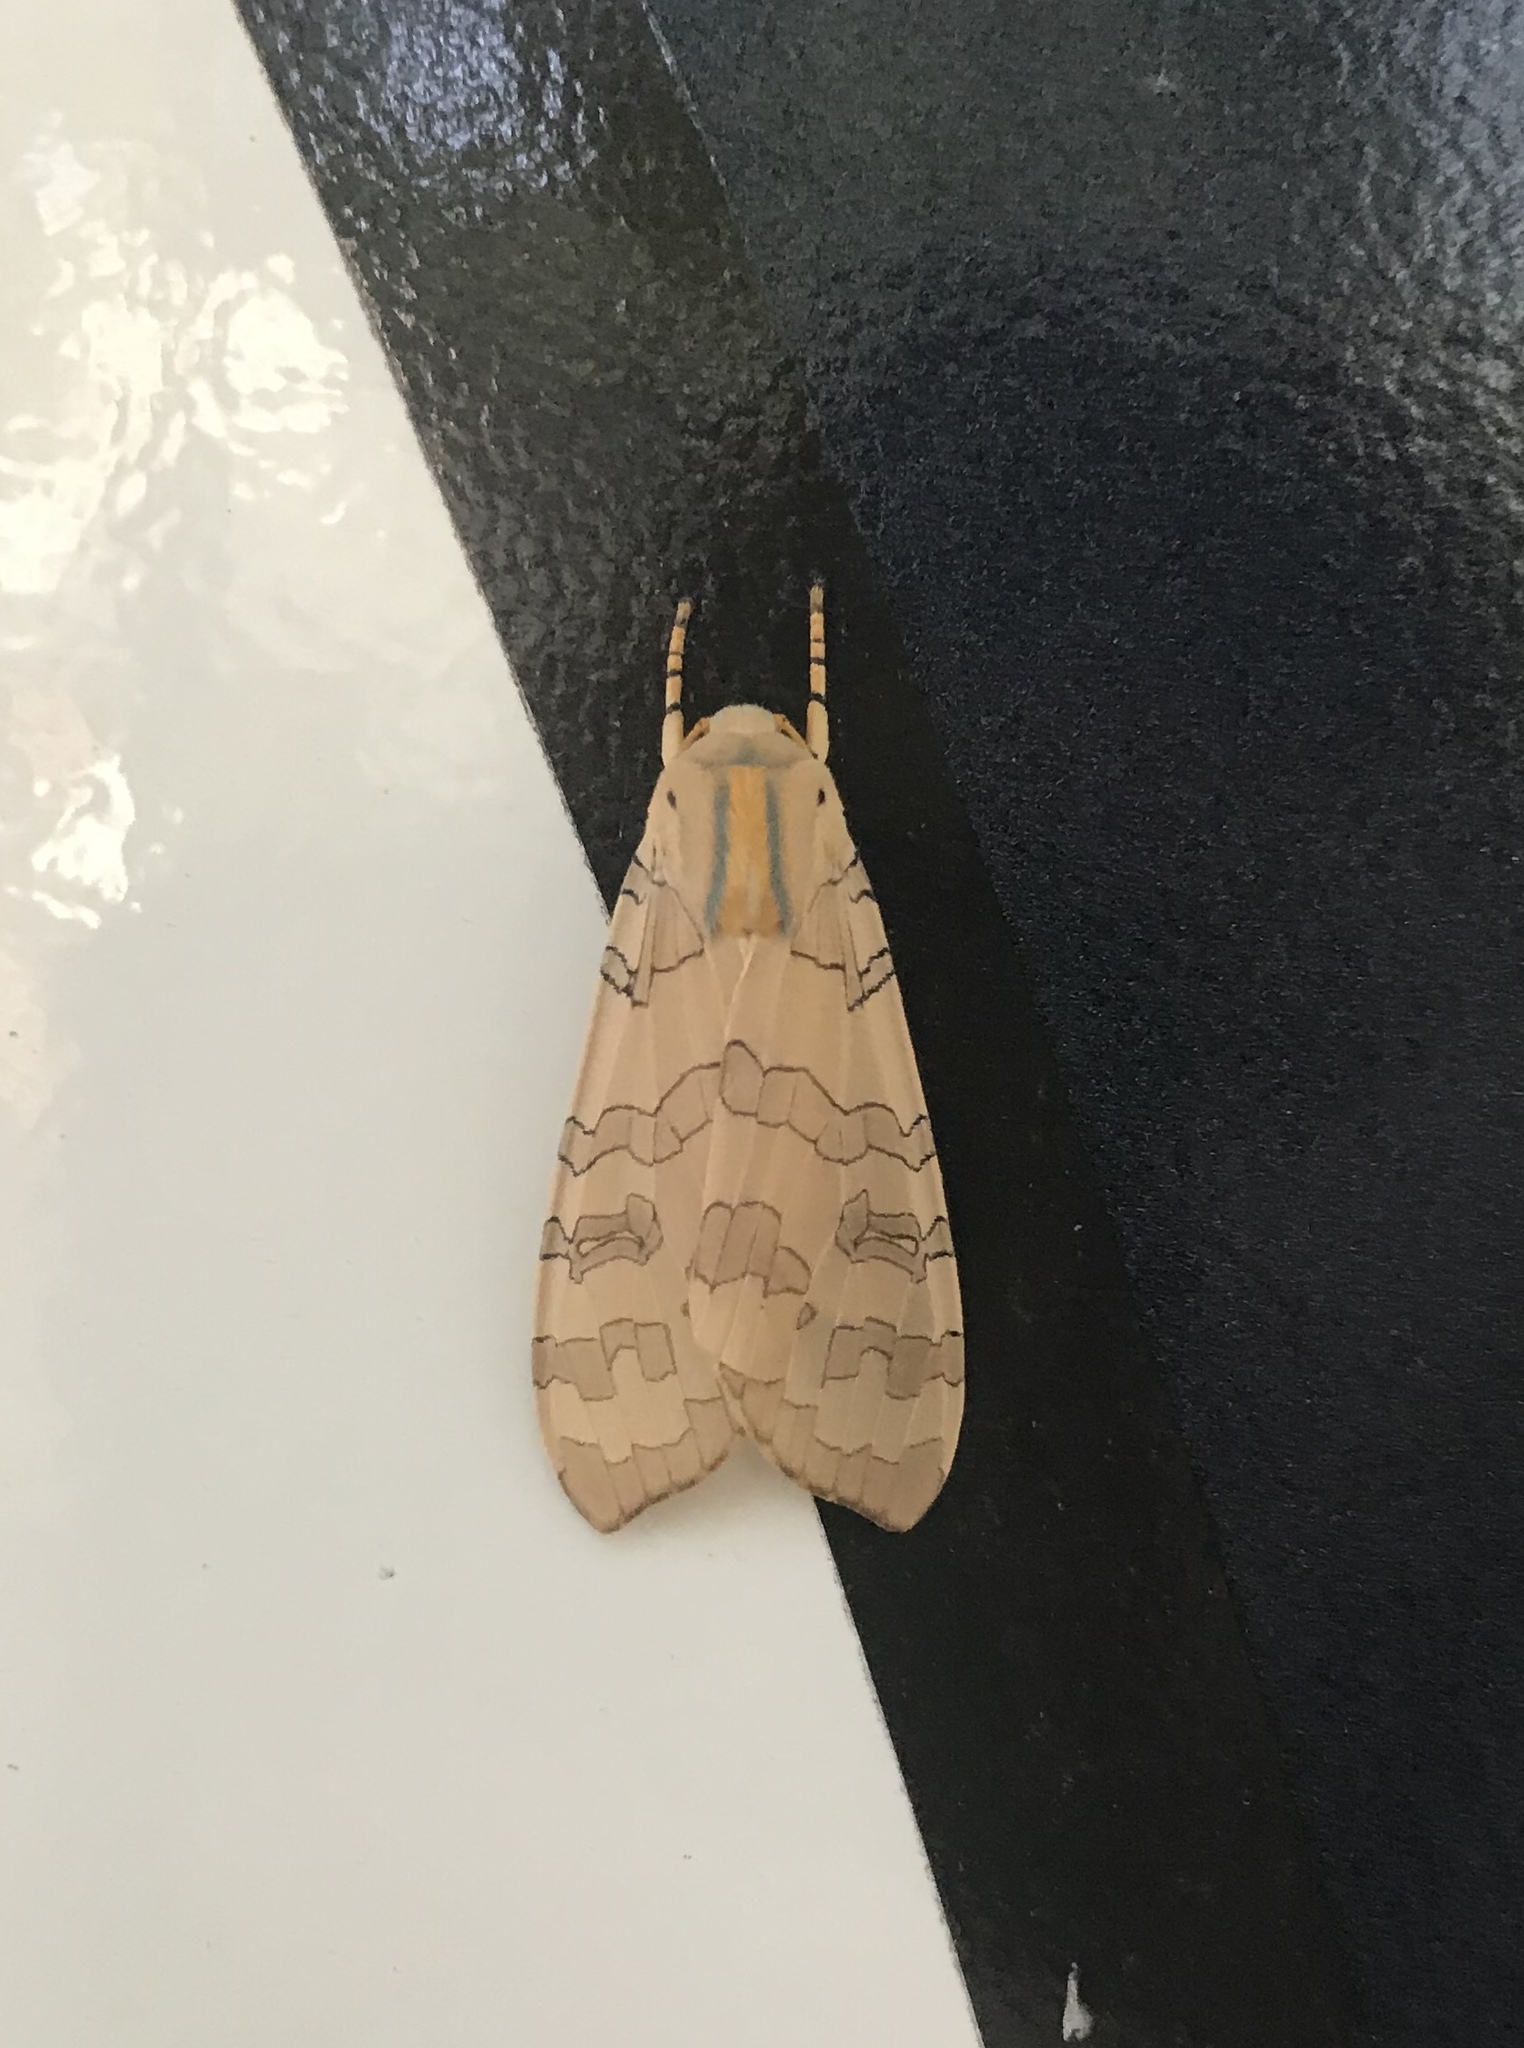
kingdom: Animalia
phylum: Arthropoda
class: Insecta
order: Lepidoptera
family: Erebidae
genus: Halysidota
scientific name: Halysidota
